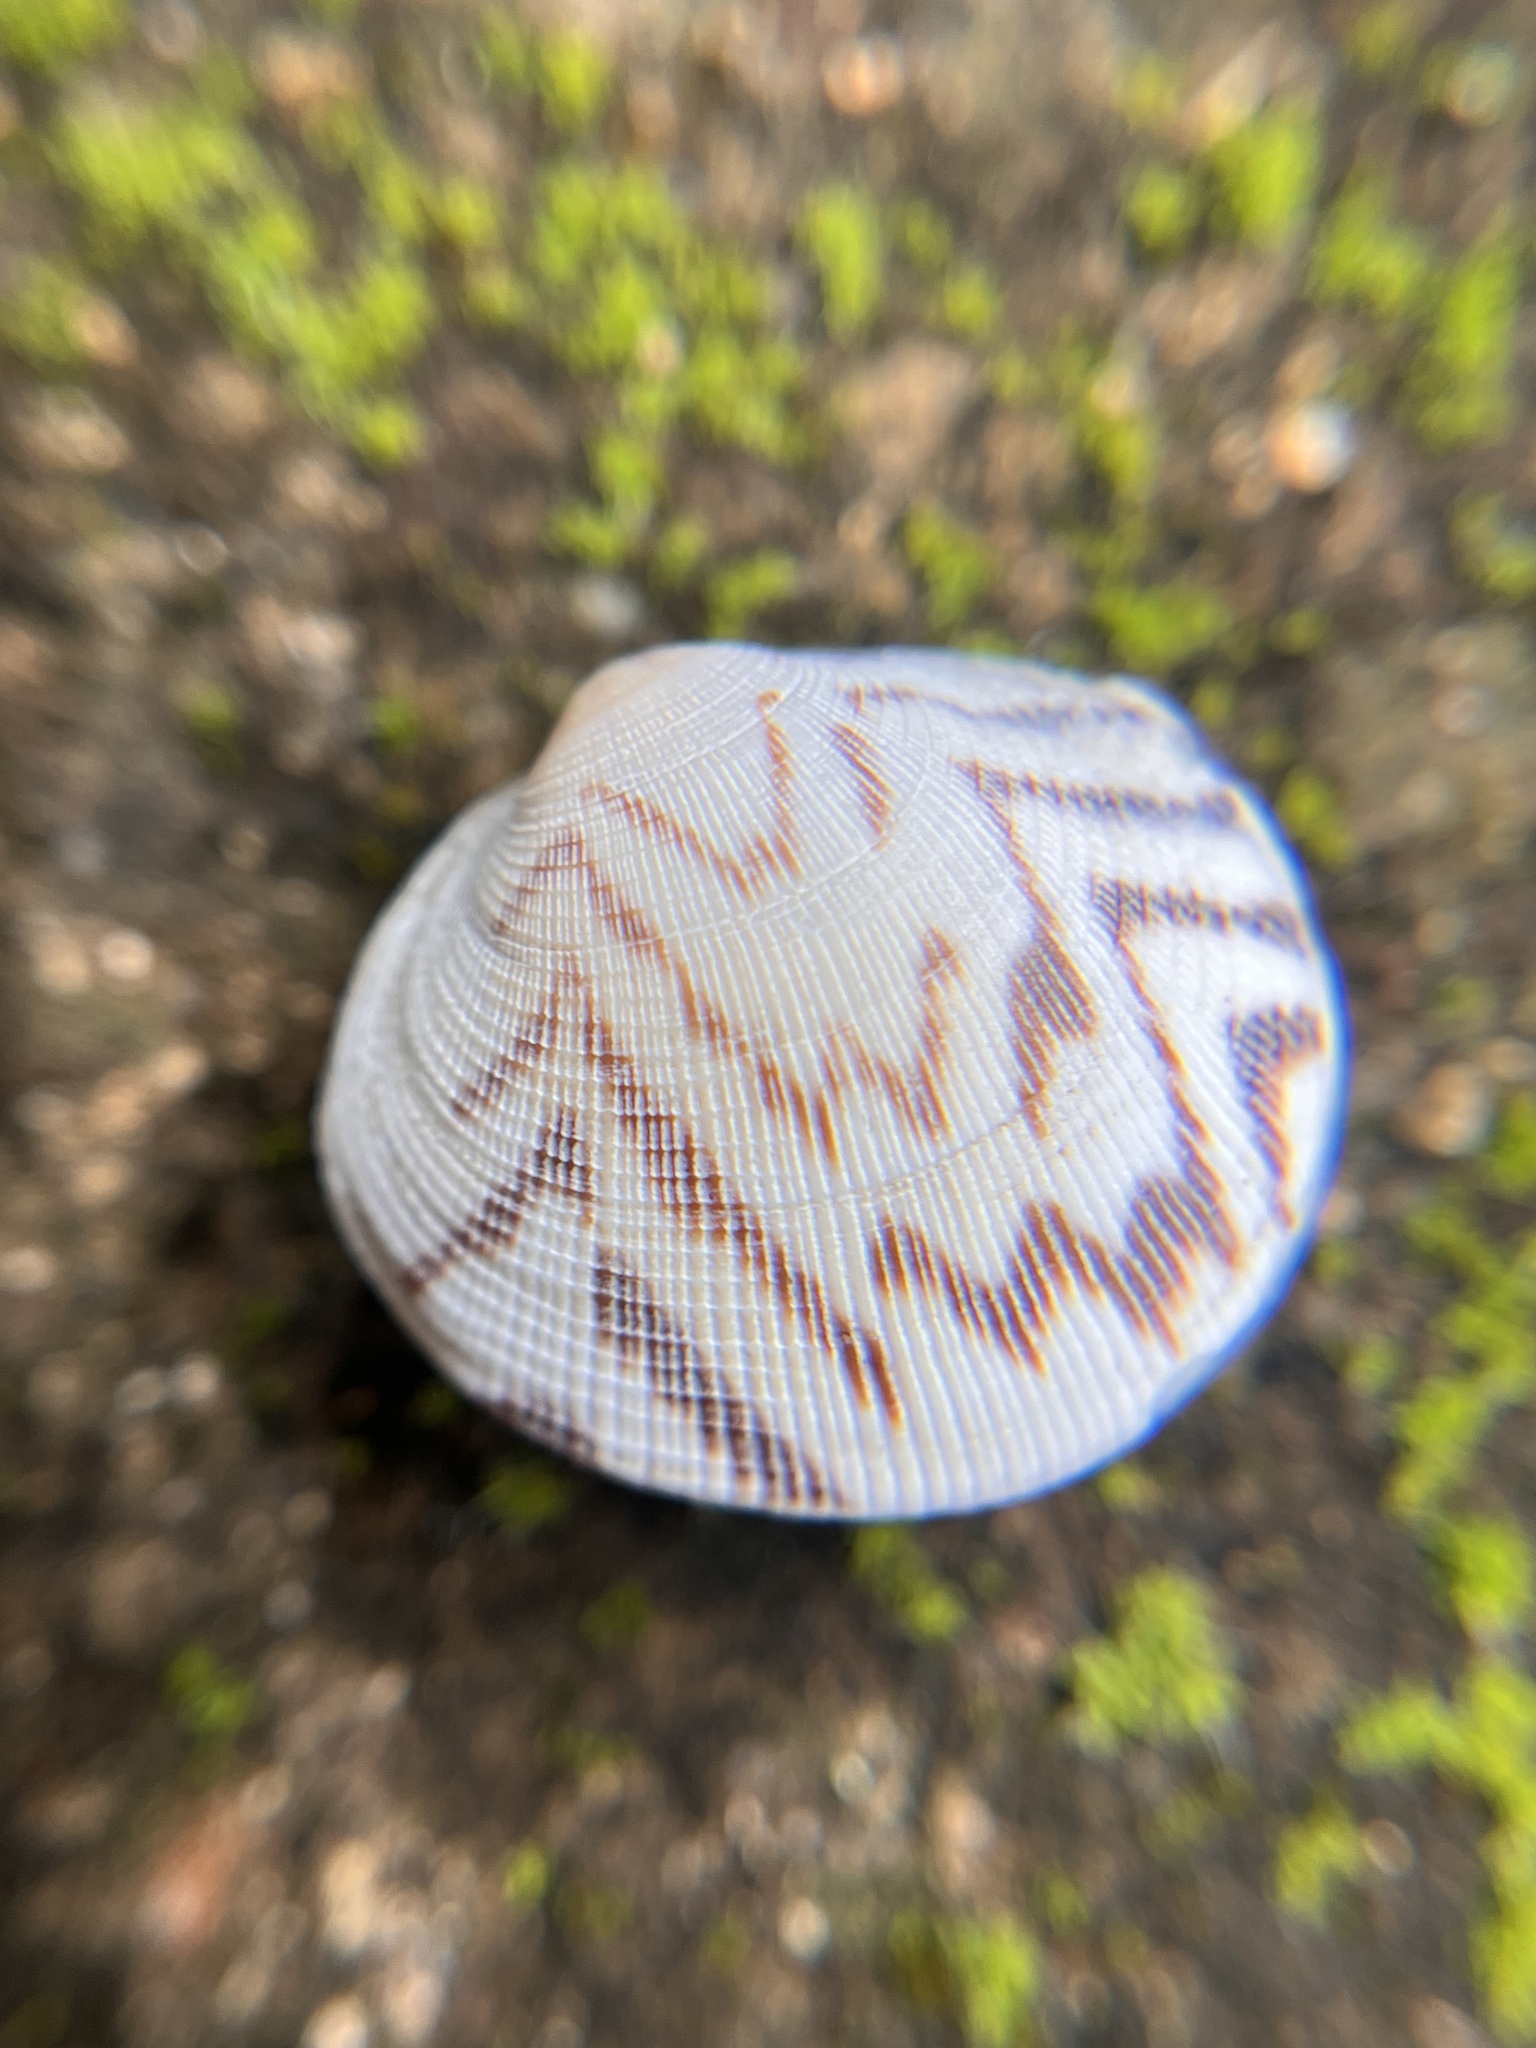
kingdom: Animalia
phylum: Mollusca
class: Bivalvia
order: Venerida
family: Veneridae
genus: Leukoma
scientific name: Leukoma staminea
